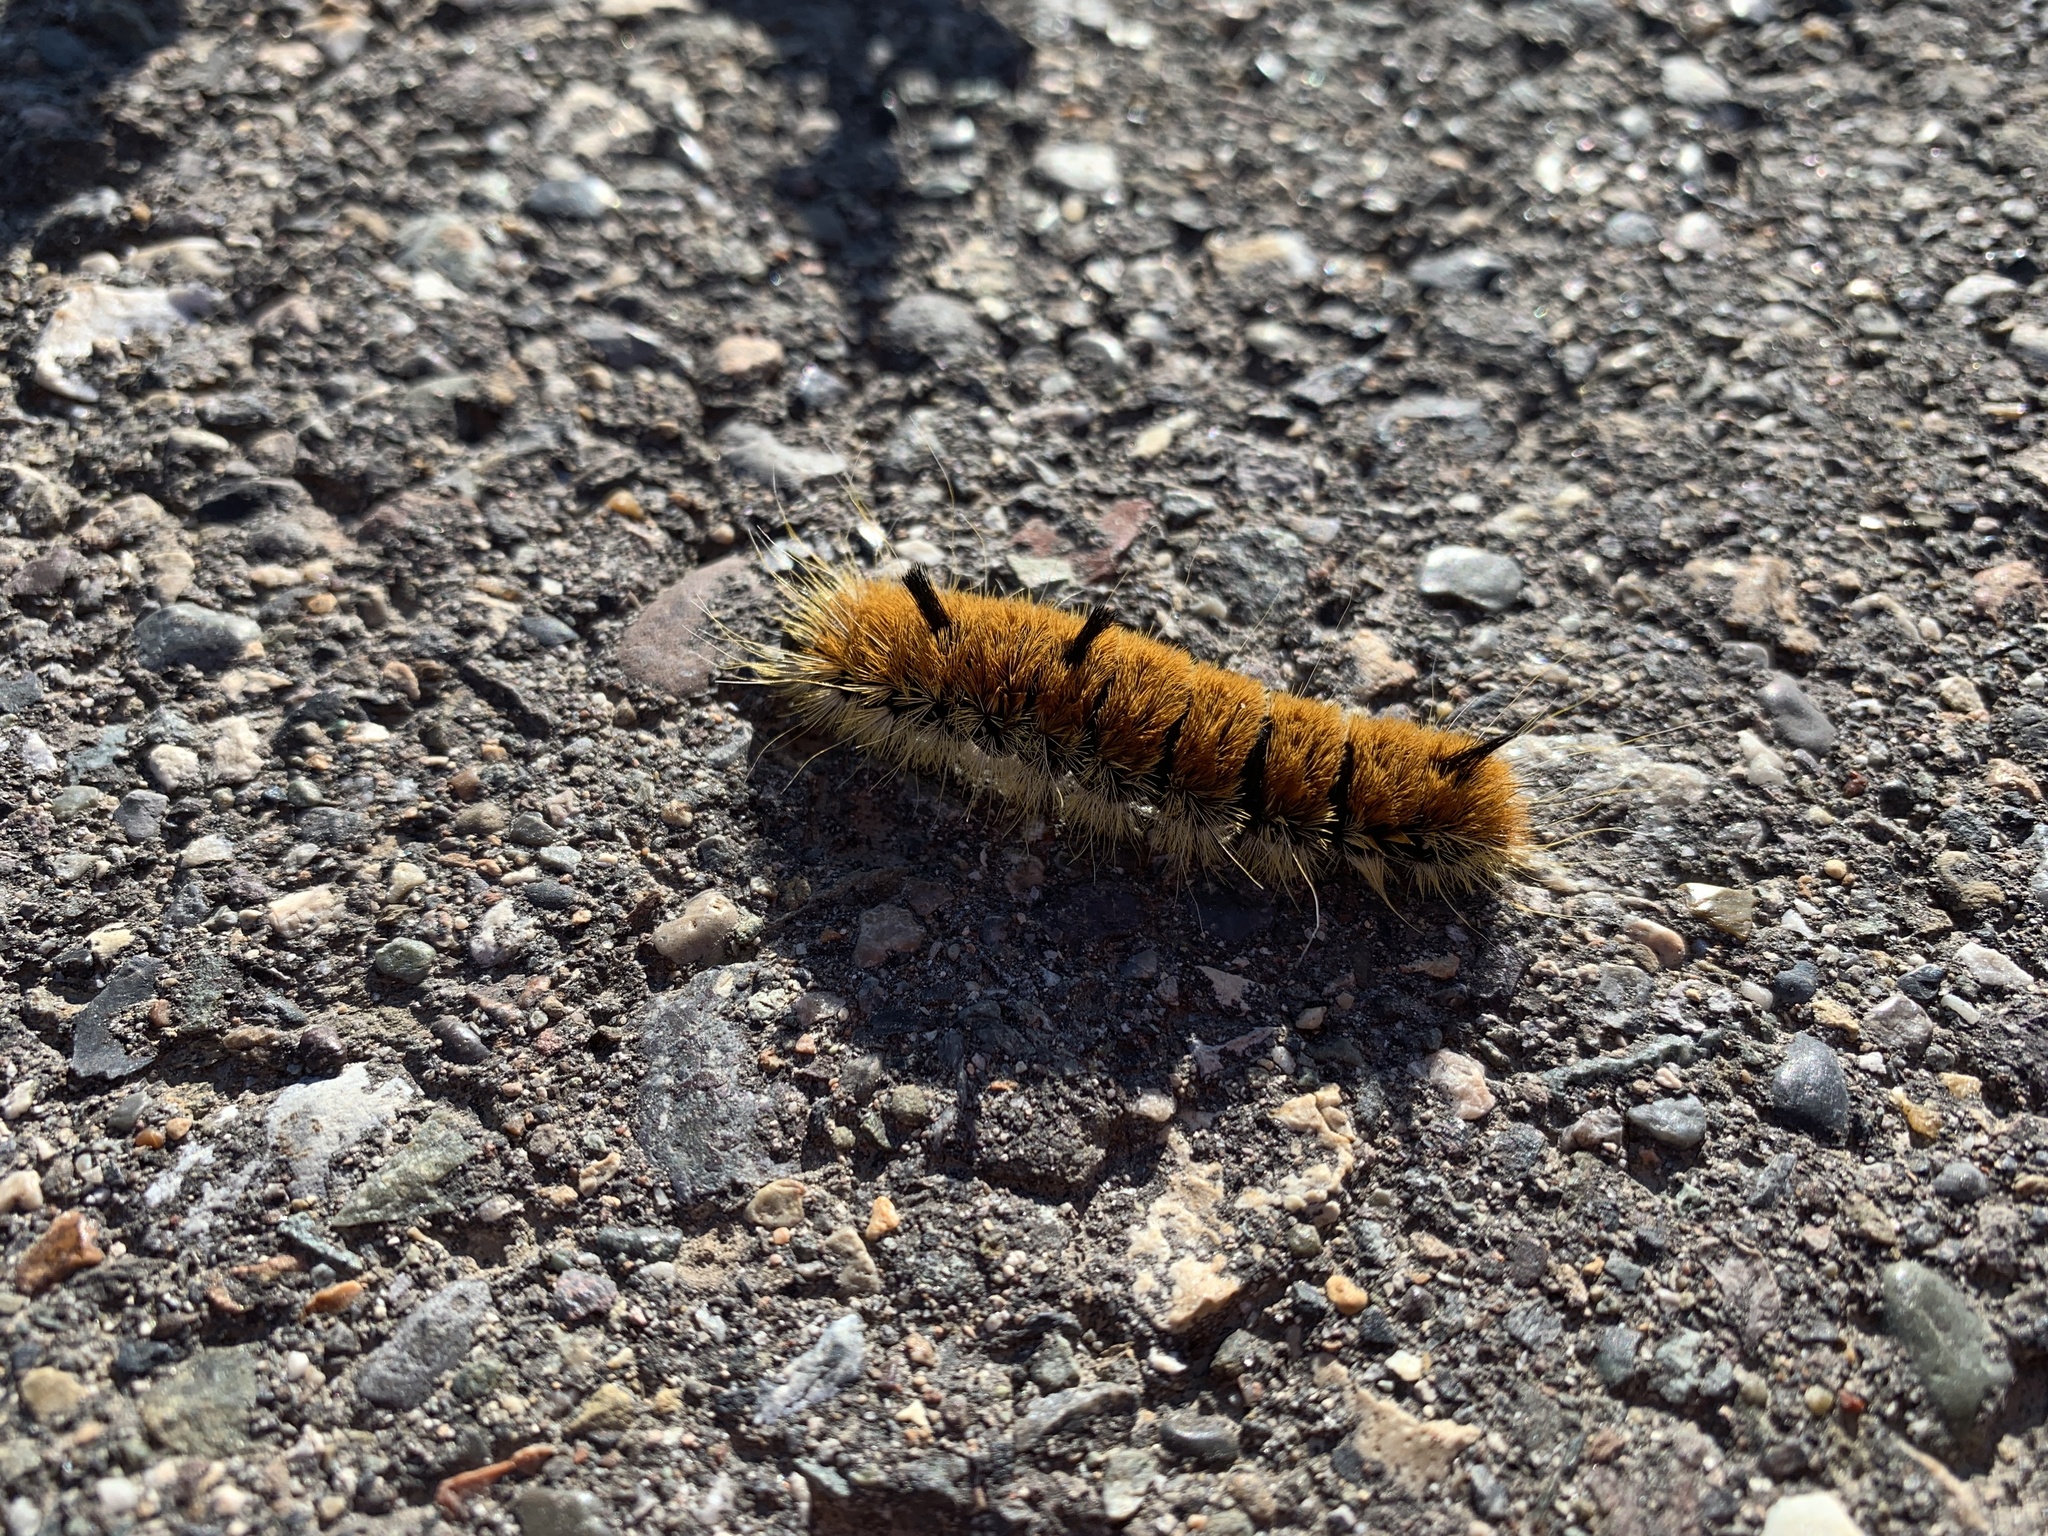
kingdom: Animalia
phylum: Arthropoda
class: Insecta
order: Lepidoptera
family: Noctuidae
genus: Acronicta
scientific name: Acronicta insita
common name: Large gray dagger
